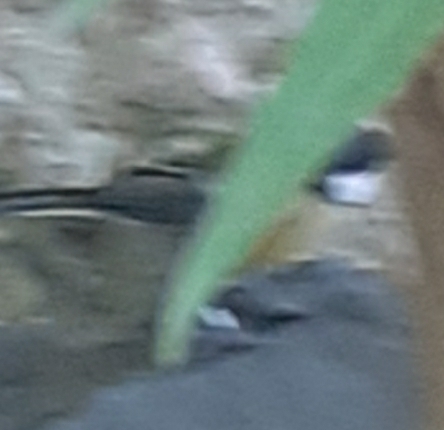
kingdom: Animalia
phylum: Chordata
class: Aves
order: Passeriformes
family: Paridae
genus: Parus
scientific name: Parus major
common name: Great tit
